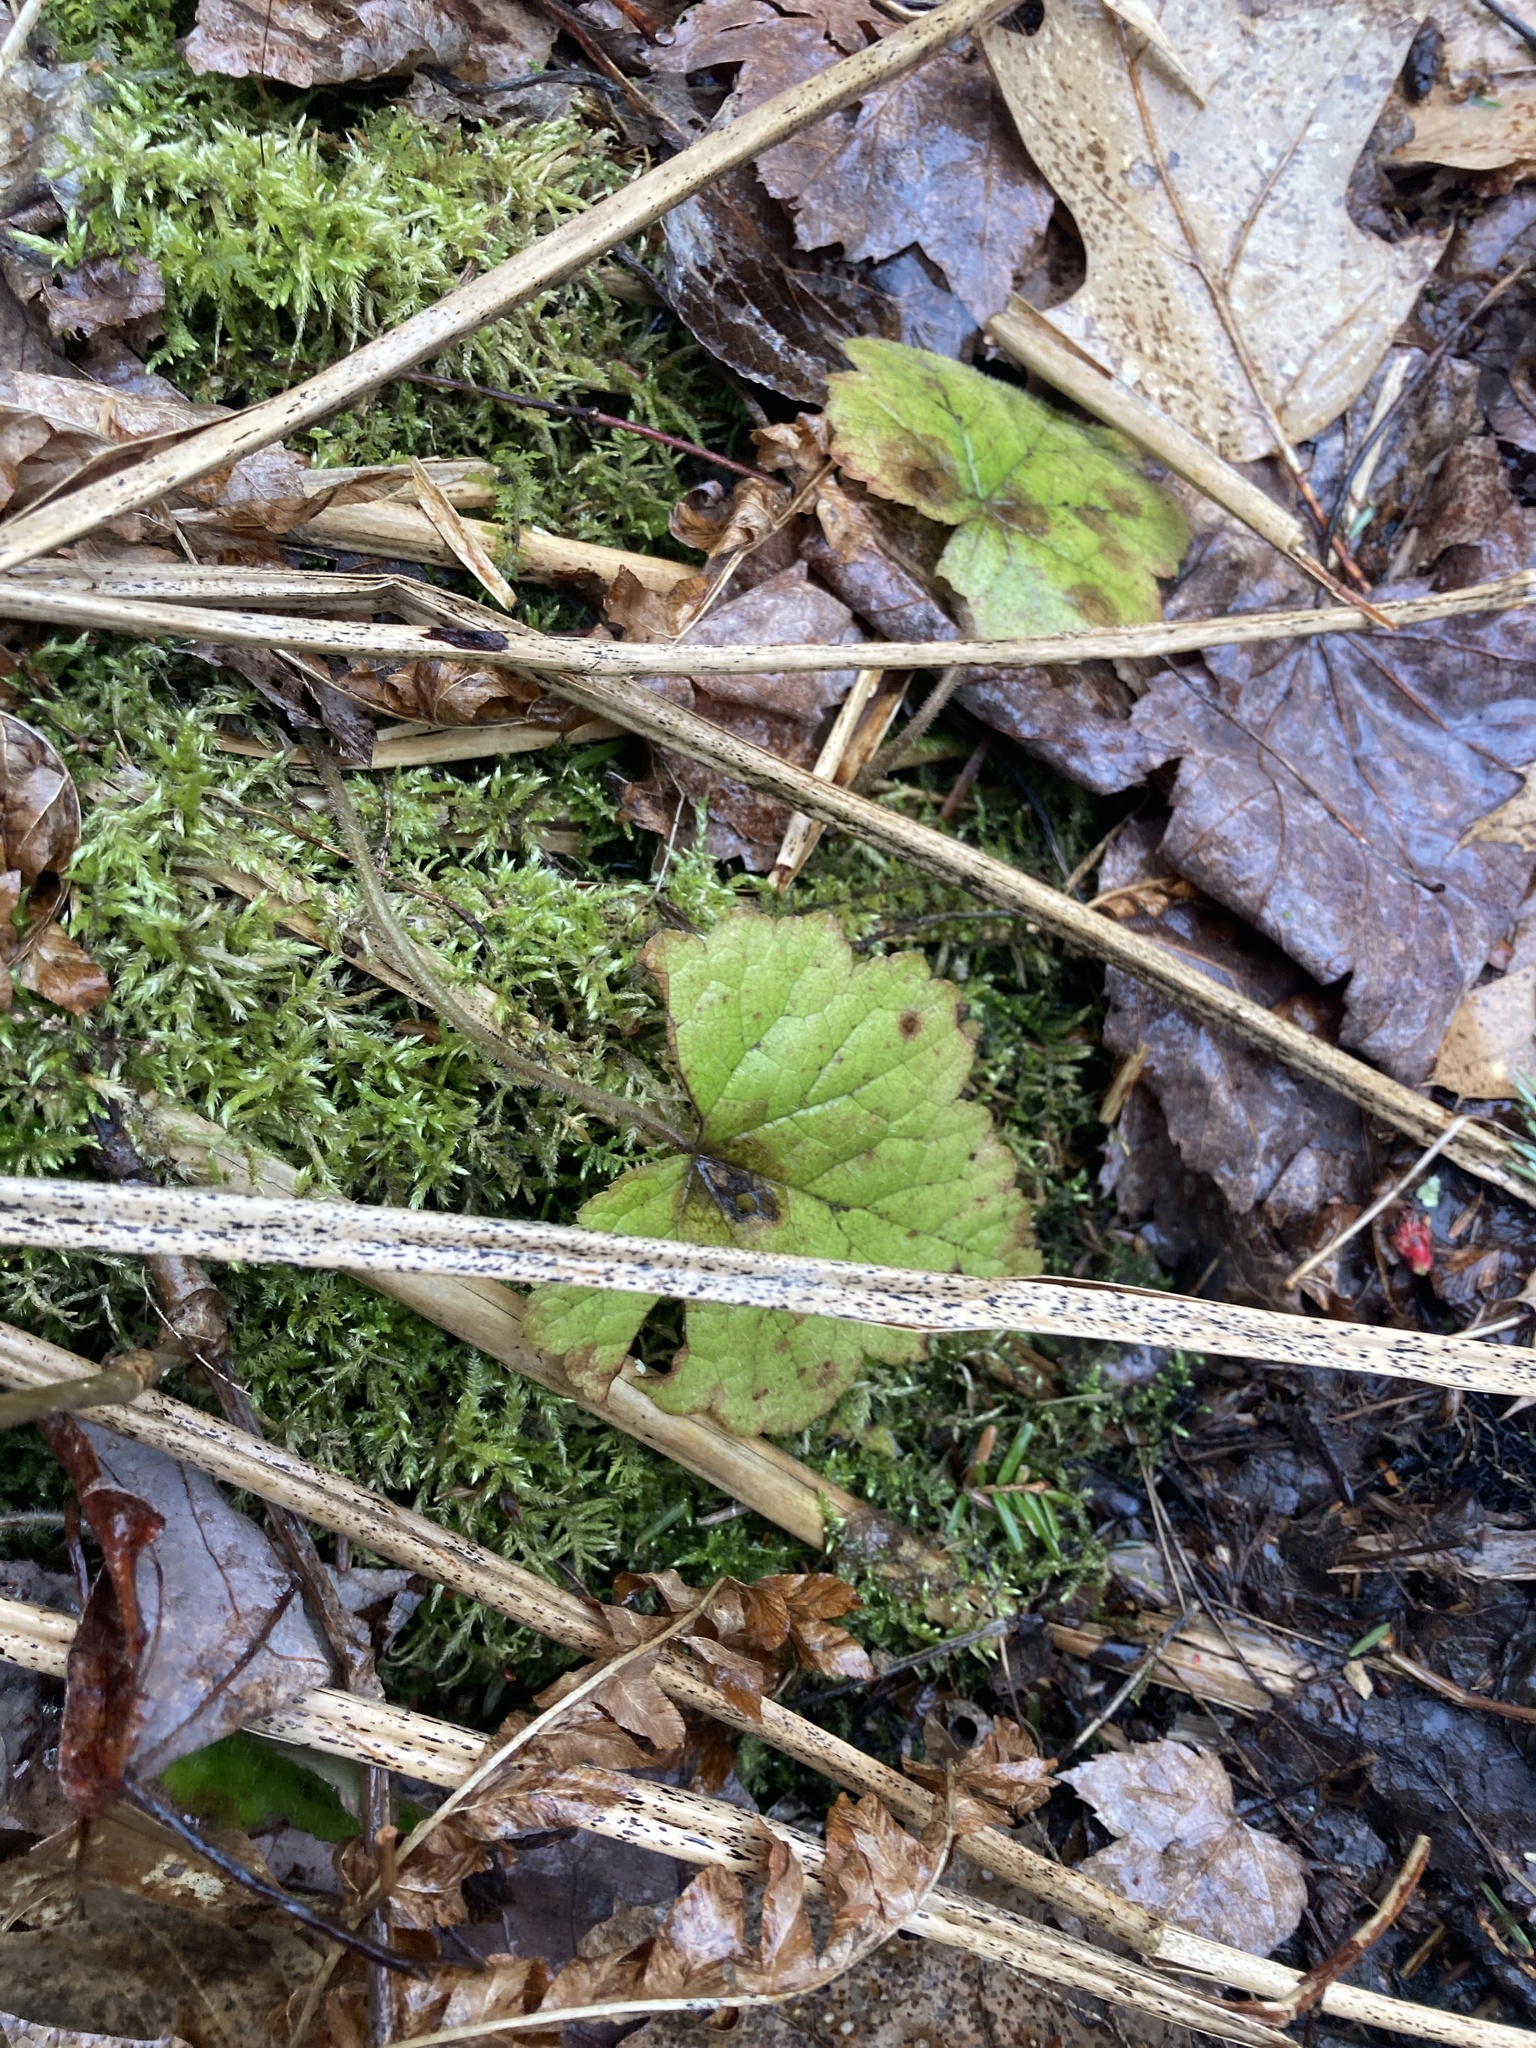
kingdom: Plantae
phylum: Tracheophyta
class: Magnoliopsida
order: Saxifragales
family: Saxifragaceae
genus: Tiarella
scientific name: Tiarella stolonifera
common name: Stoloniferous foamflower
